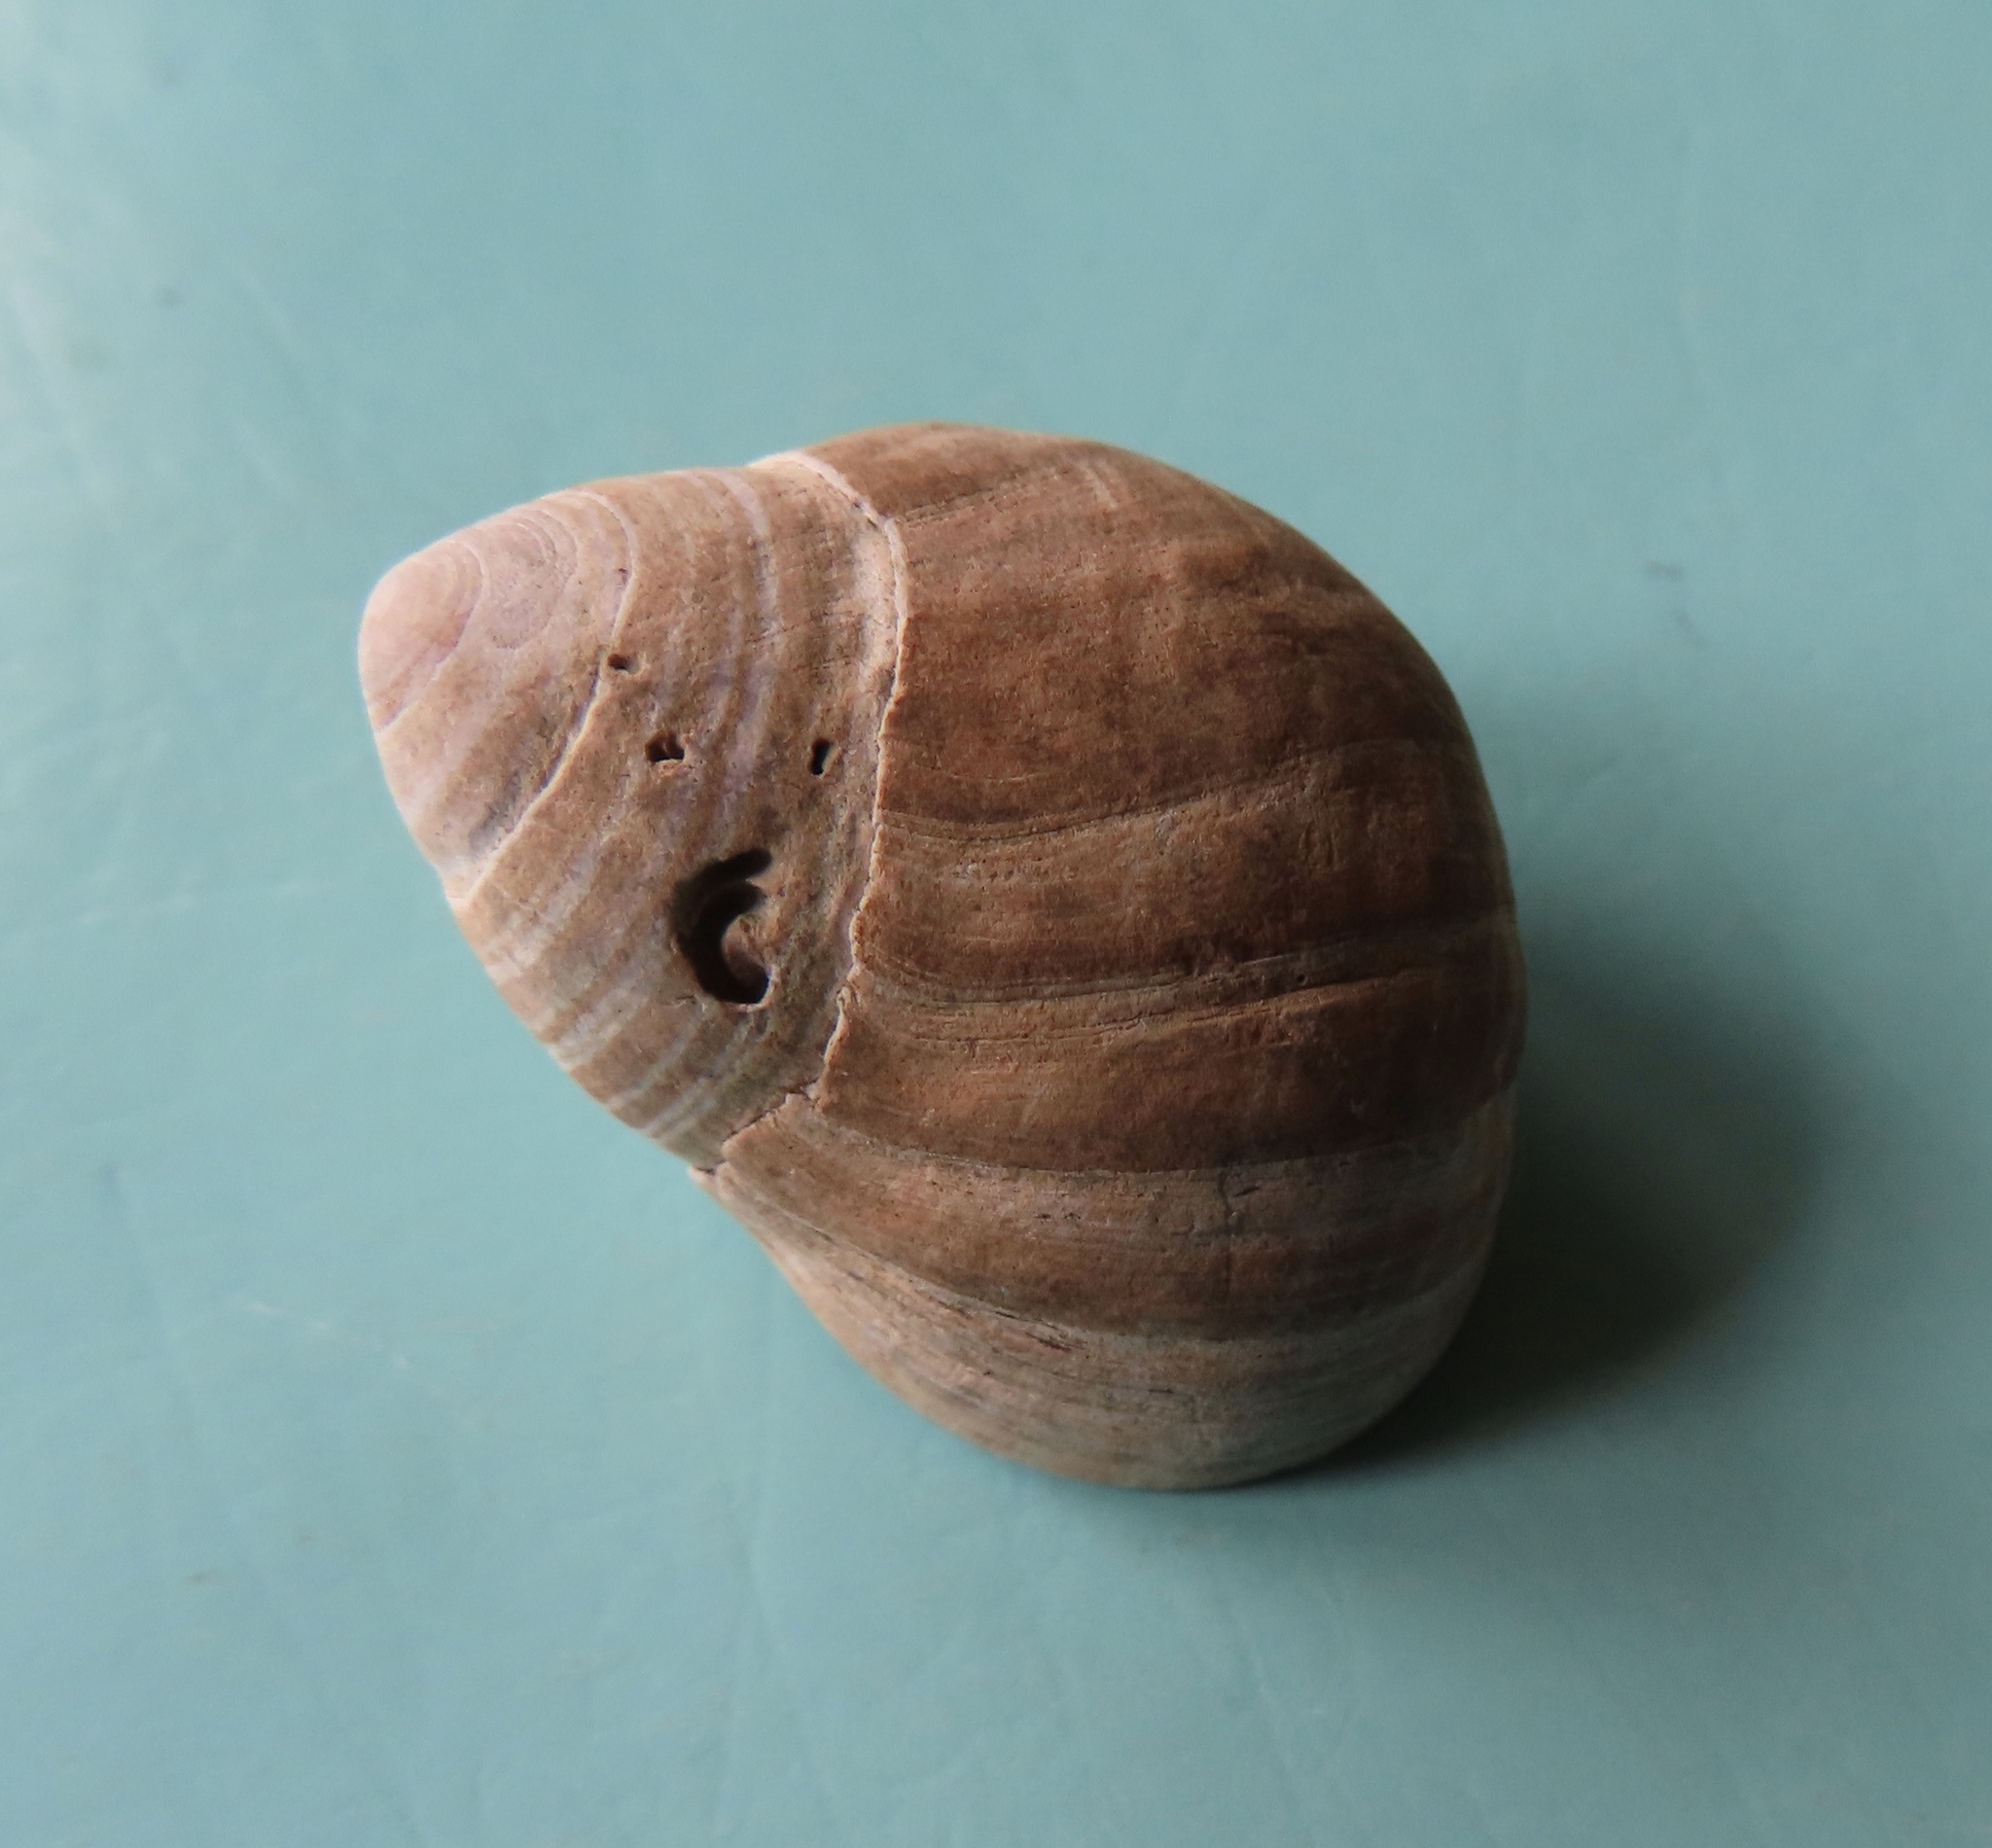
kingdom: Animalia
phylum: Mollusca
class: Gastropoda
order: Littorinimorpha
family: Littorinidae
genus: Littorina
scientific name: Littorina littorea
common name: Common periwinkle
